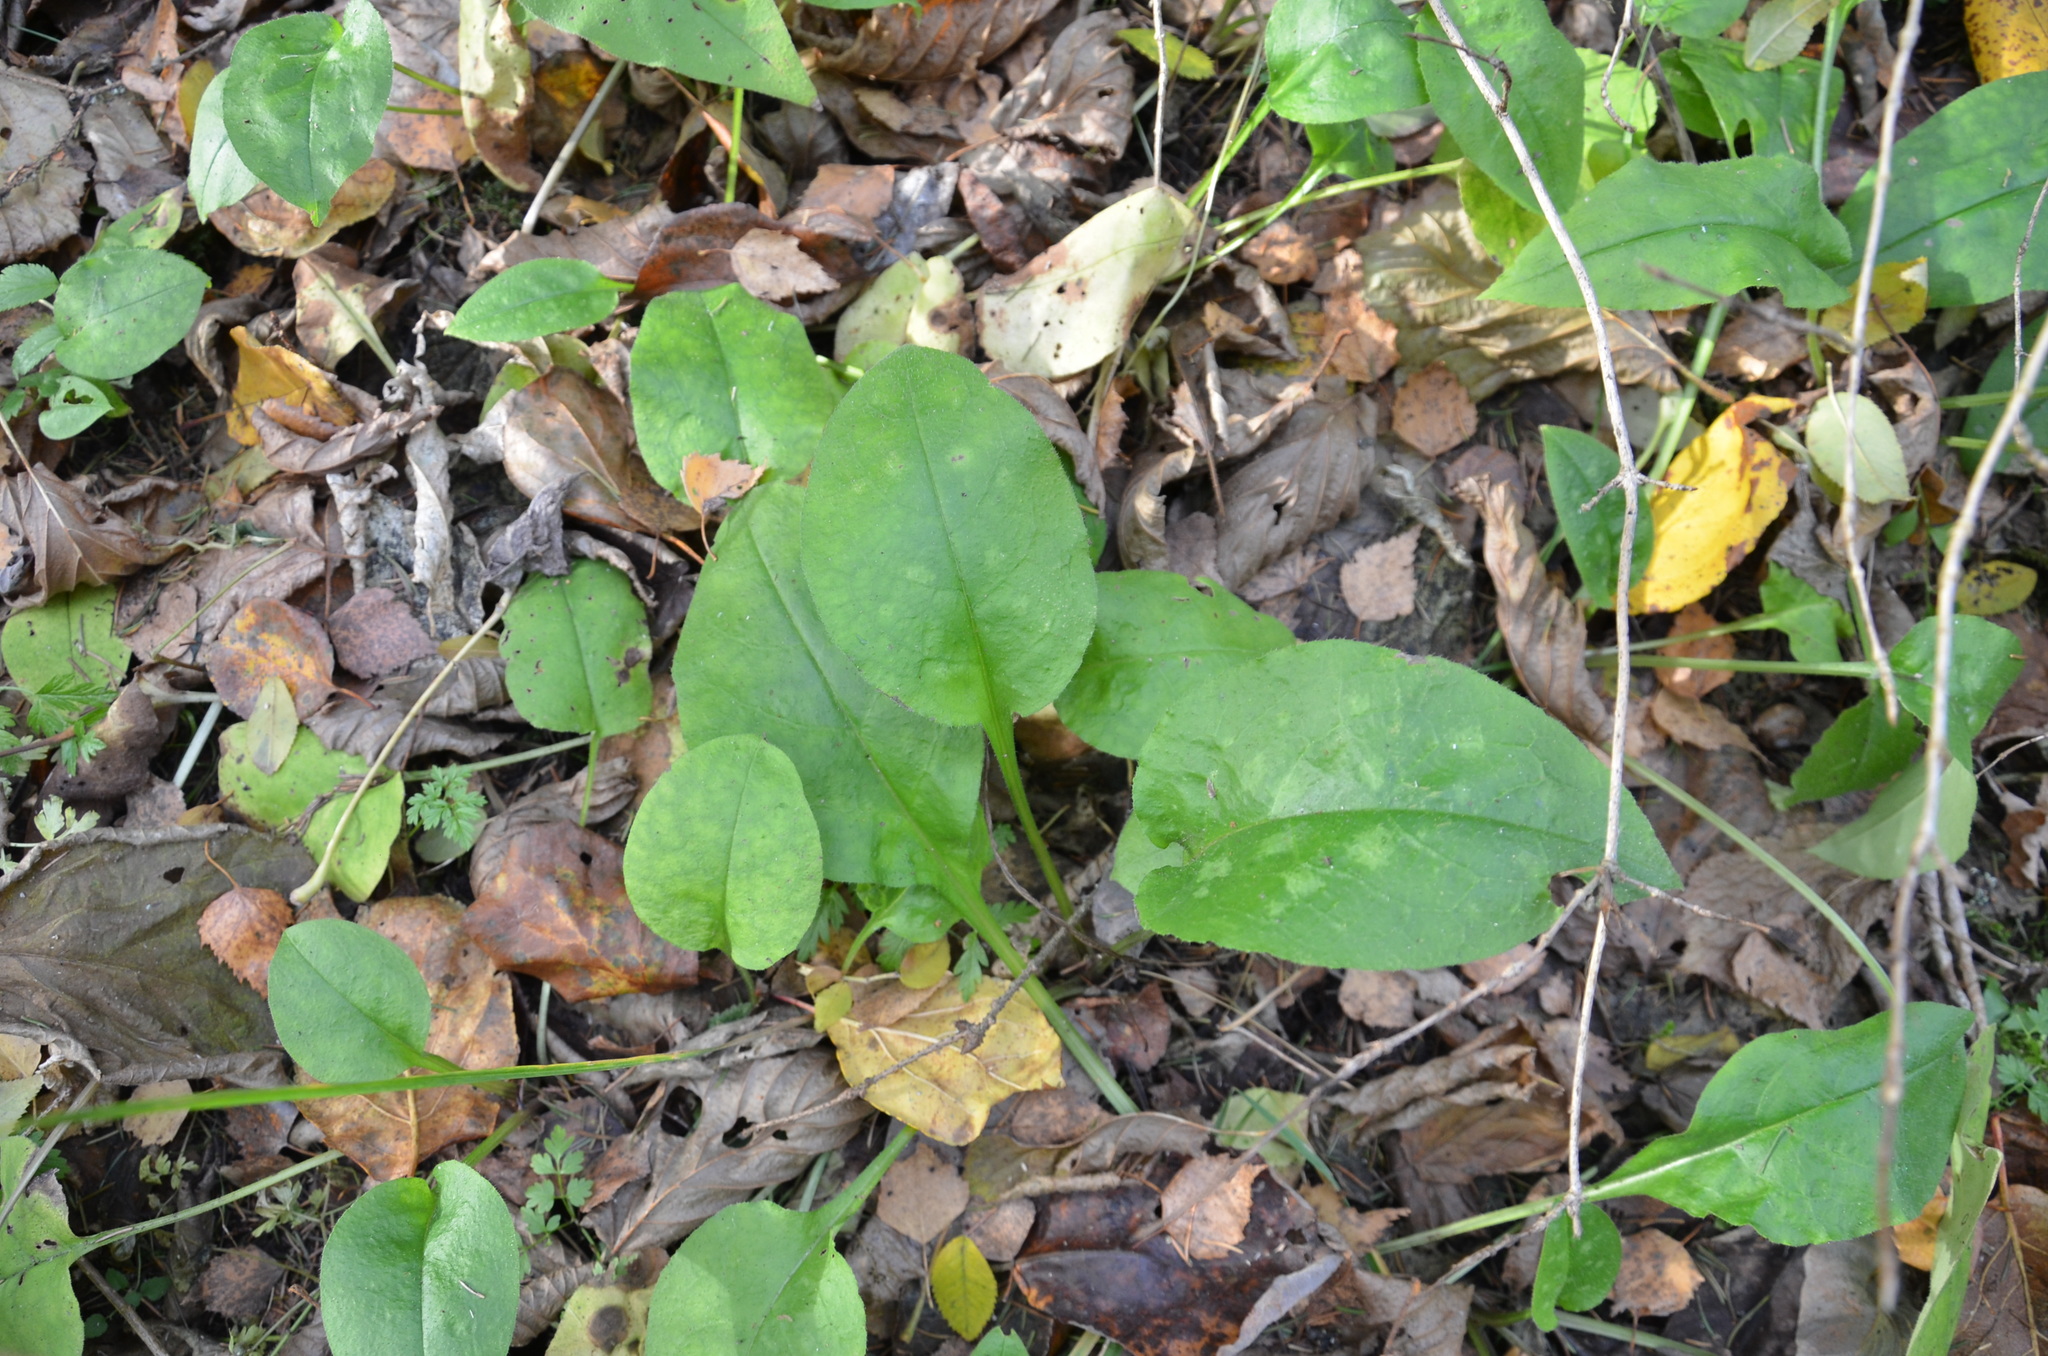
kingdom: Plantae
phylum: Tracheophyta
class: Magnoliopsida
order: Boraginales
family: Boraginaceae
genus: Pulmonaria
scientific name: Pulmonaria obscura
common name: Suffolk lungwort
